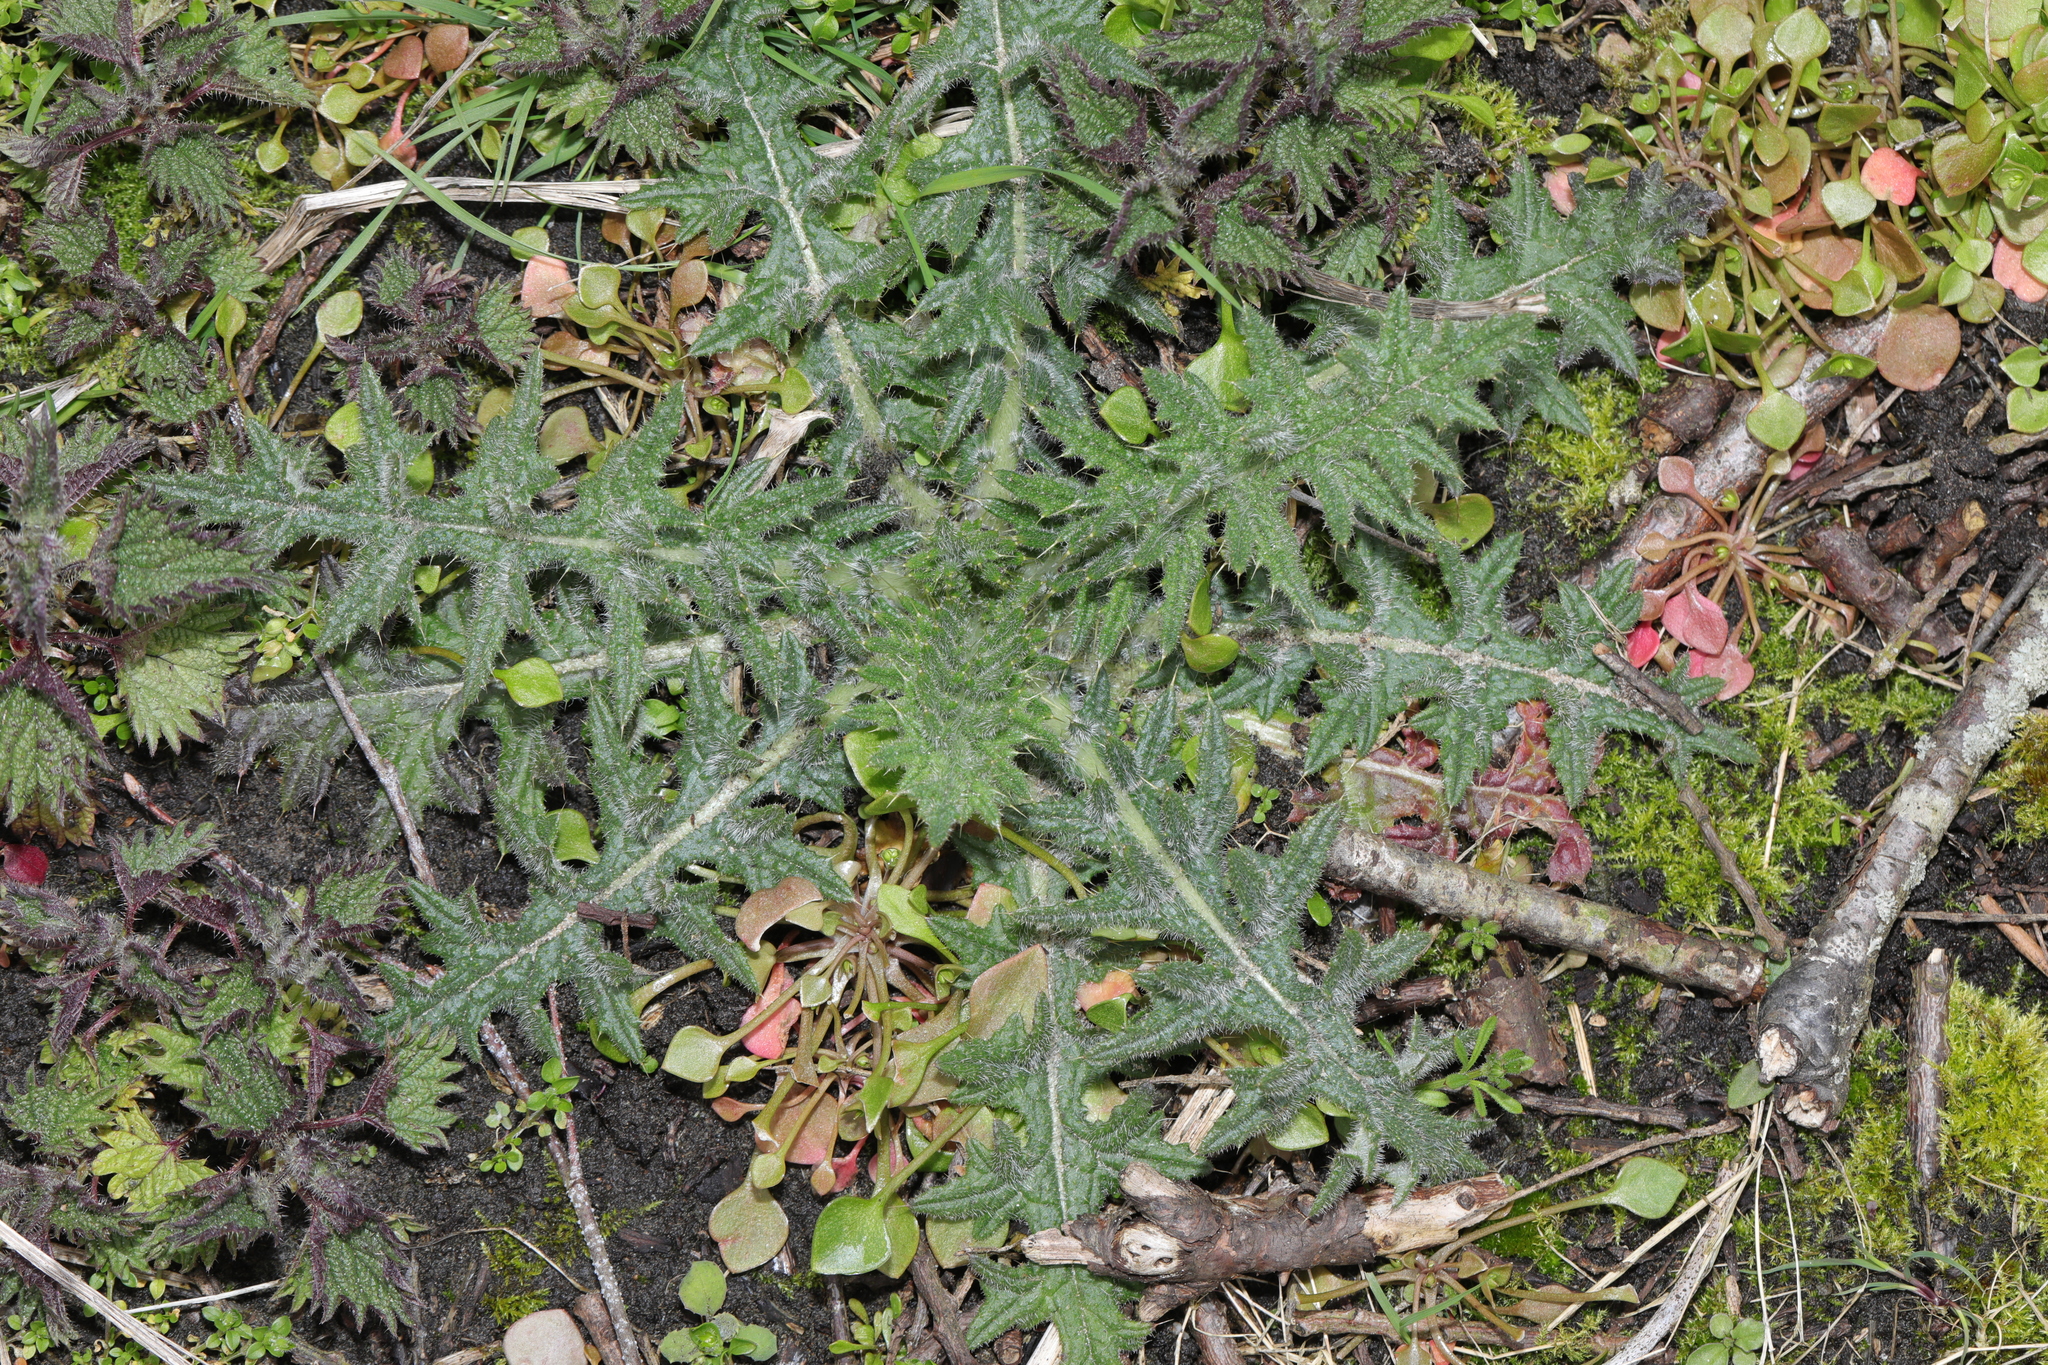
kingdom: Plantae
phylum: Tracheophyta
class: Magnoliopsida
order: Asterales
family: Asteraceae
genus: Cirsium
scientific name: Cirsium vulgare
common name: Bull thistle
